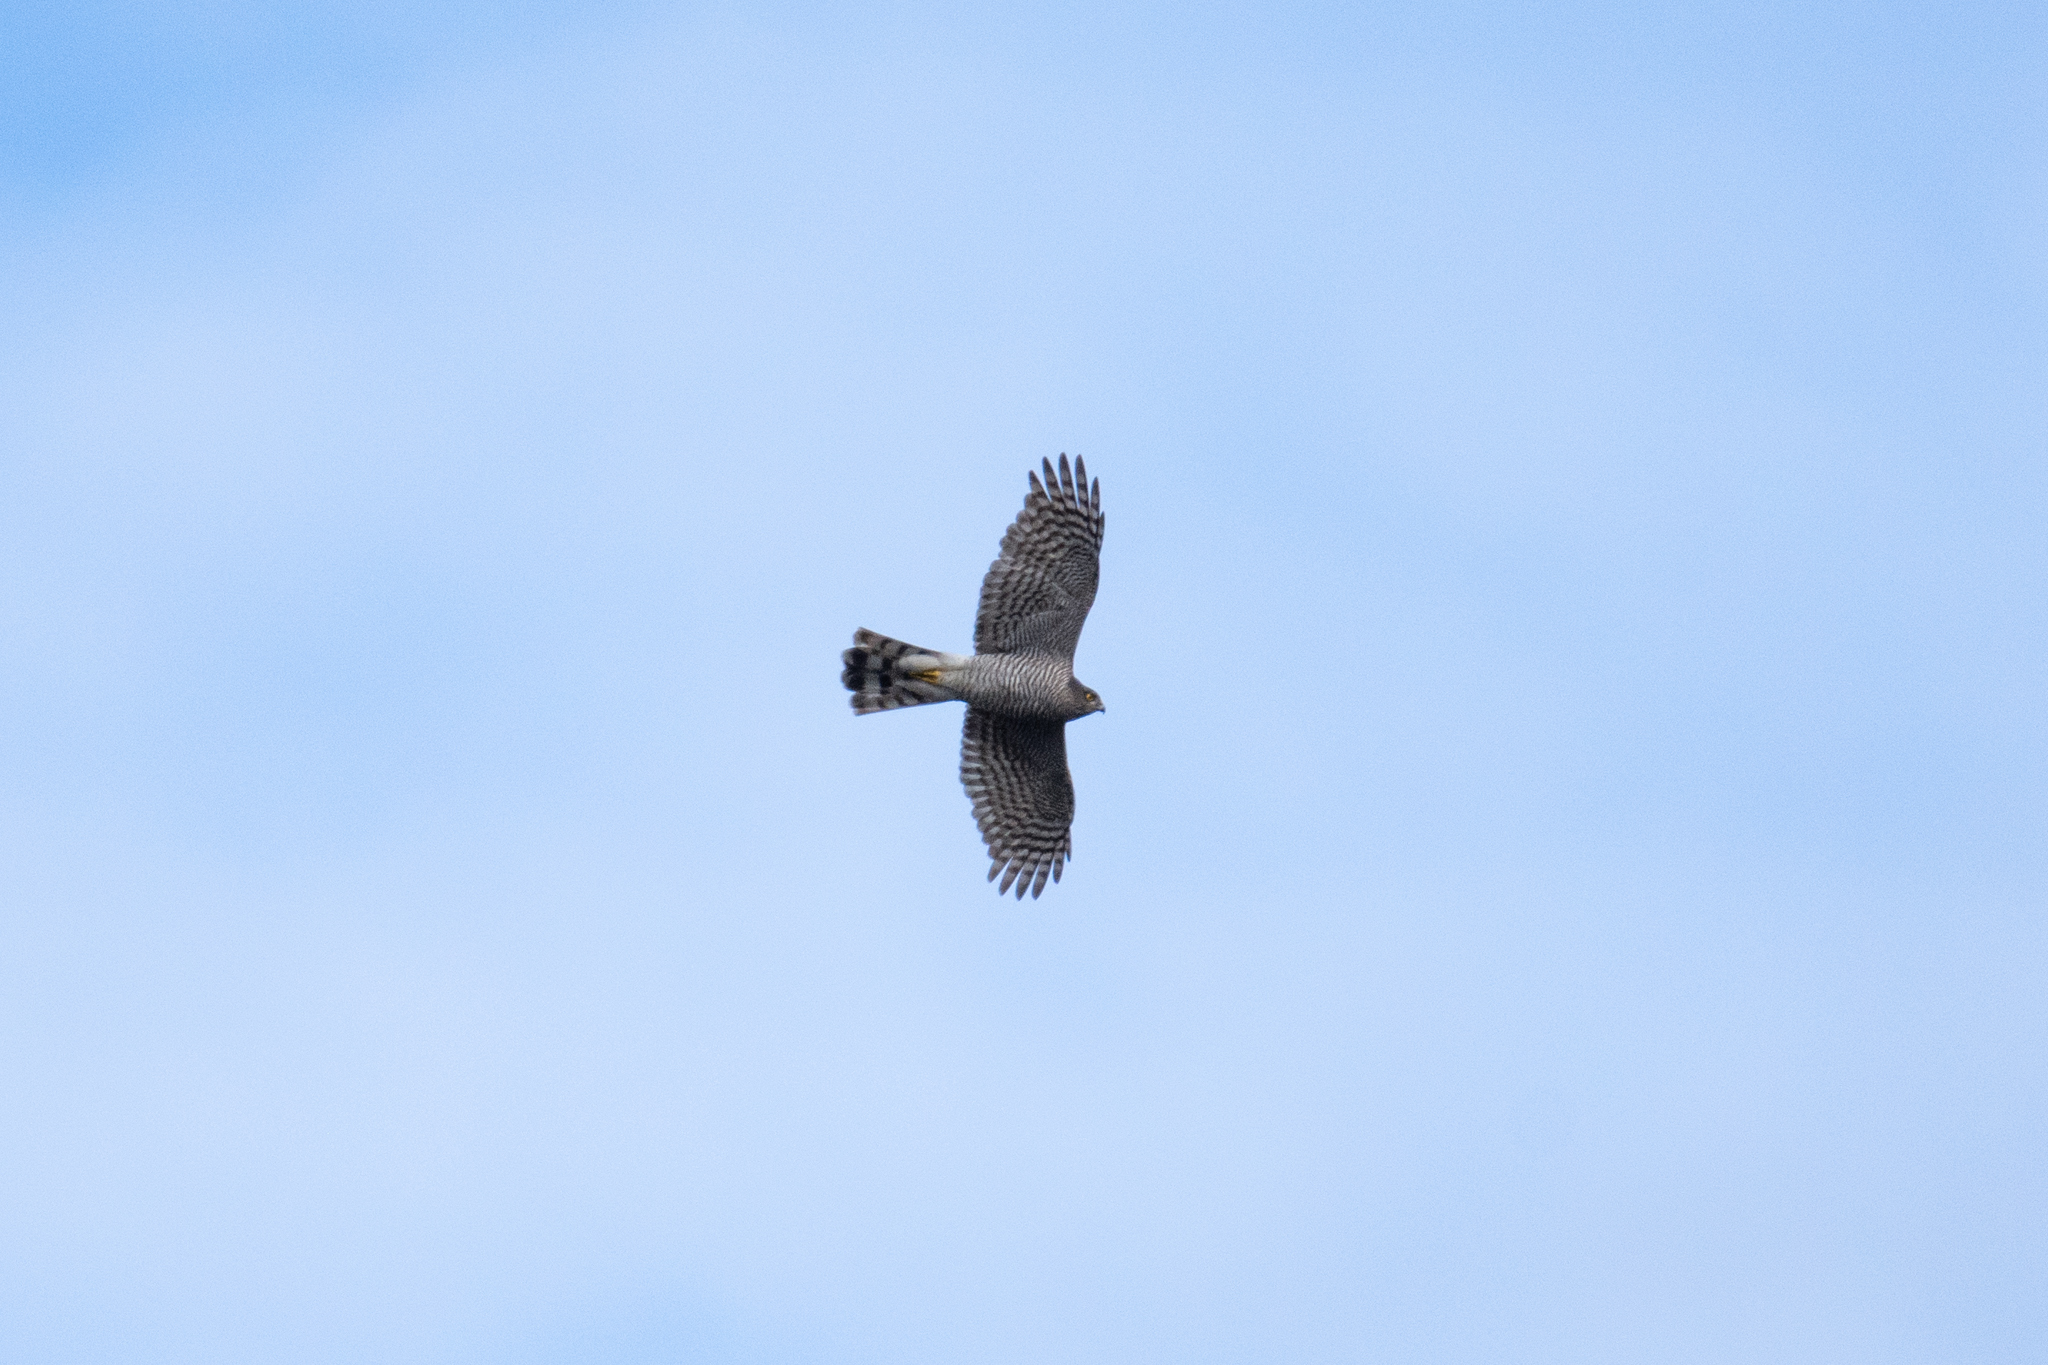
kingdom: Animalia
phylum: Chordata
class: Aves
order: Accipitriformes
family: Accipitridae
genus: Accipiter
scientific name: Accipiter nisus
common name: Eurasian sparrowhawk
